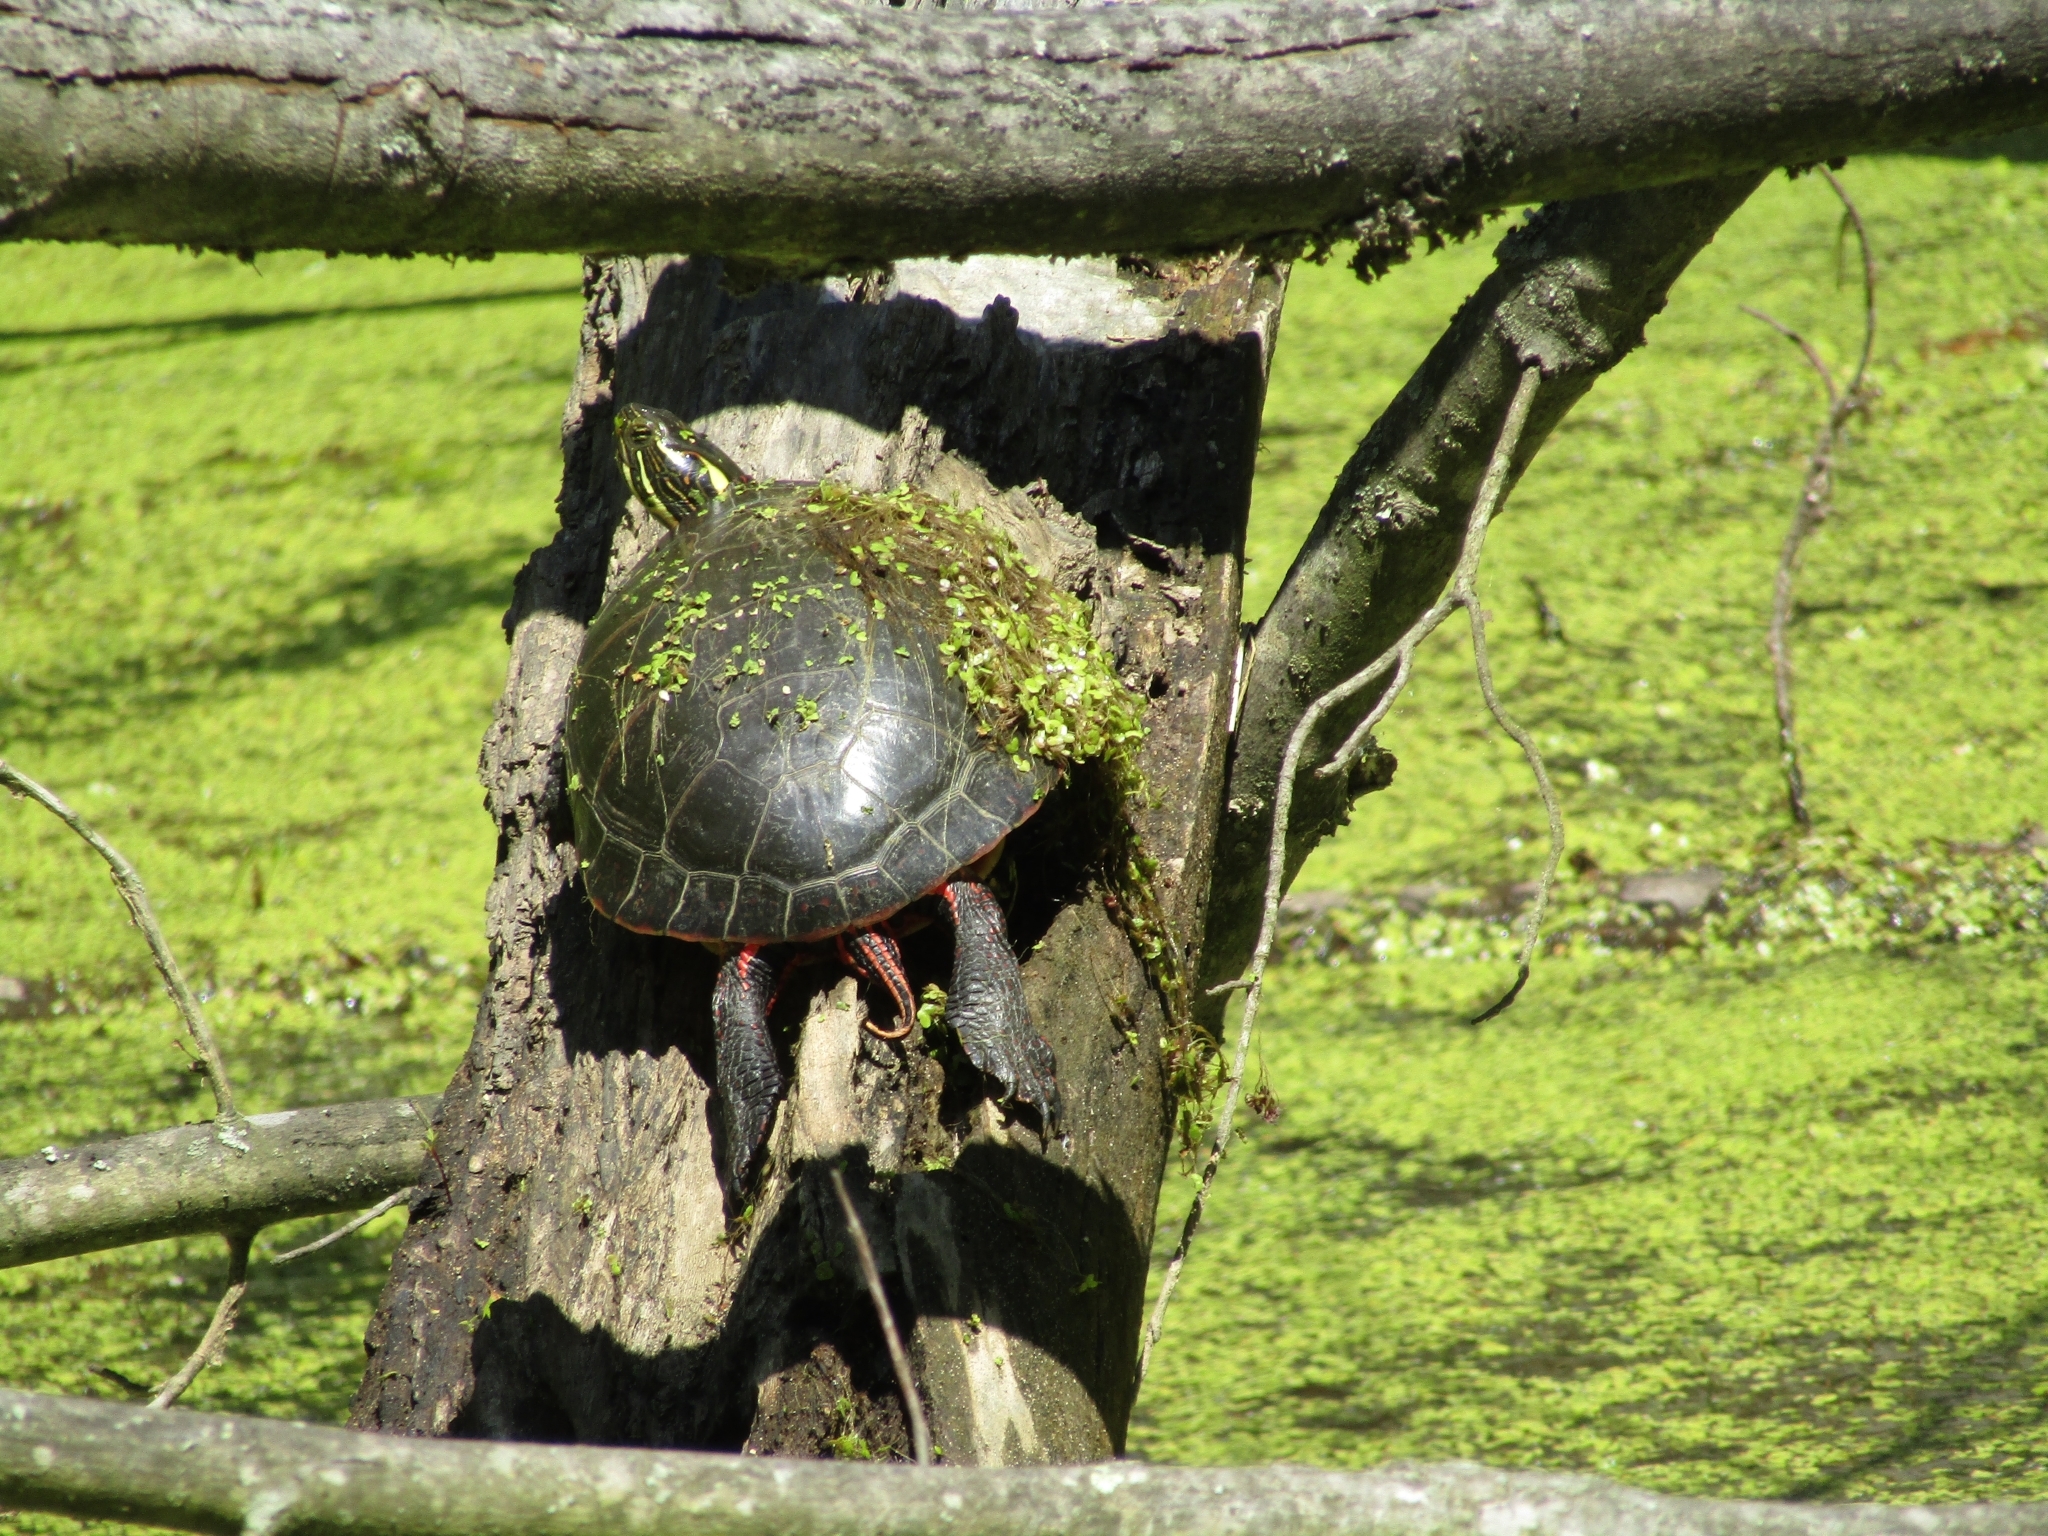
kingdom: Animalia
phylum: Chordata
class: Testudines
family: Emydidae
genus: Chrysemys
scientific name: Chrysemys picta
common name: Painted turtle
